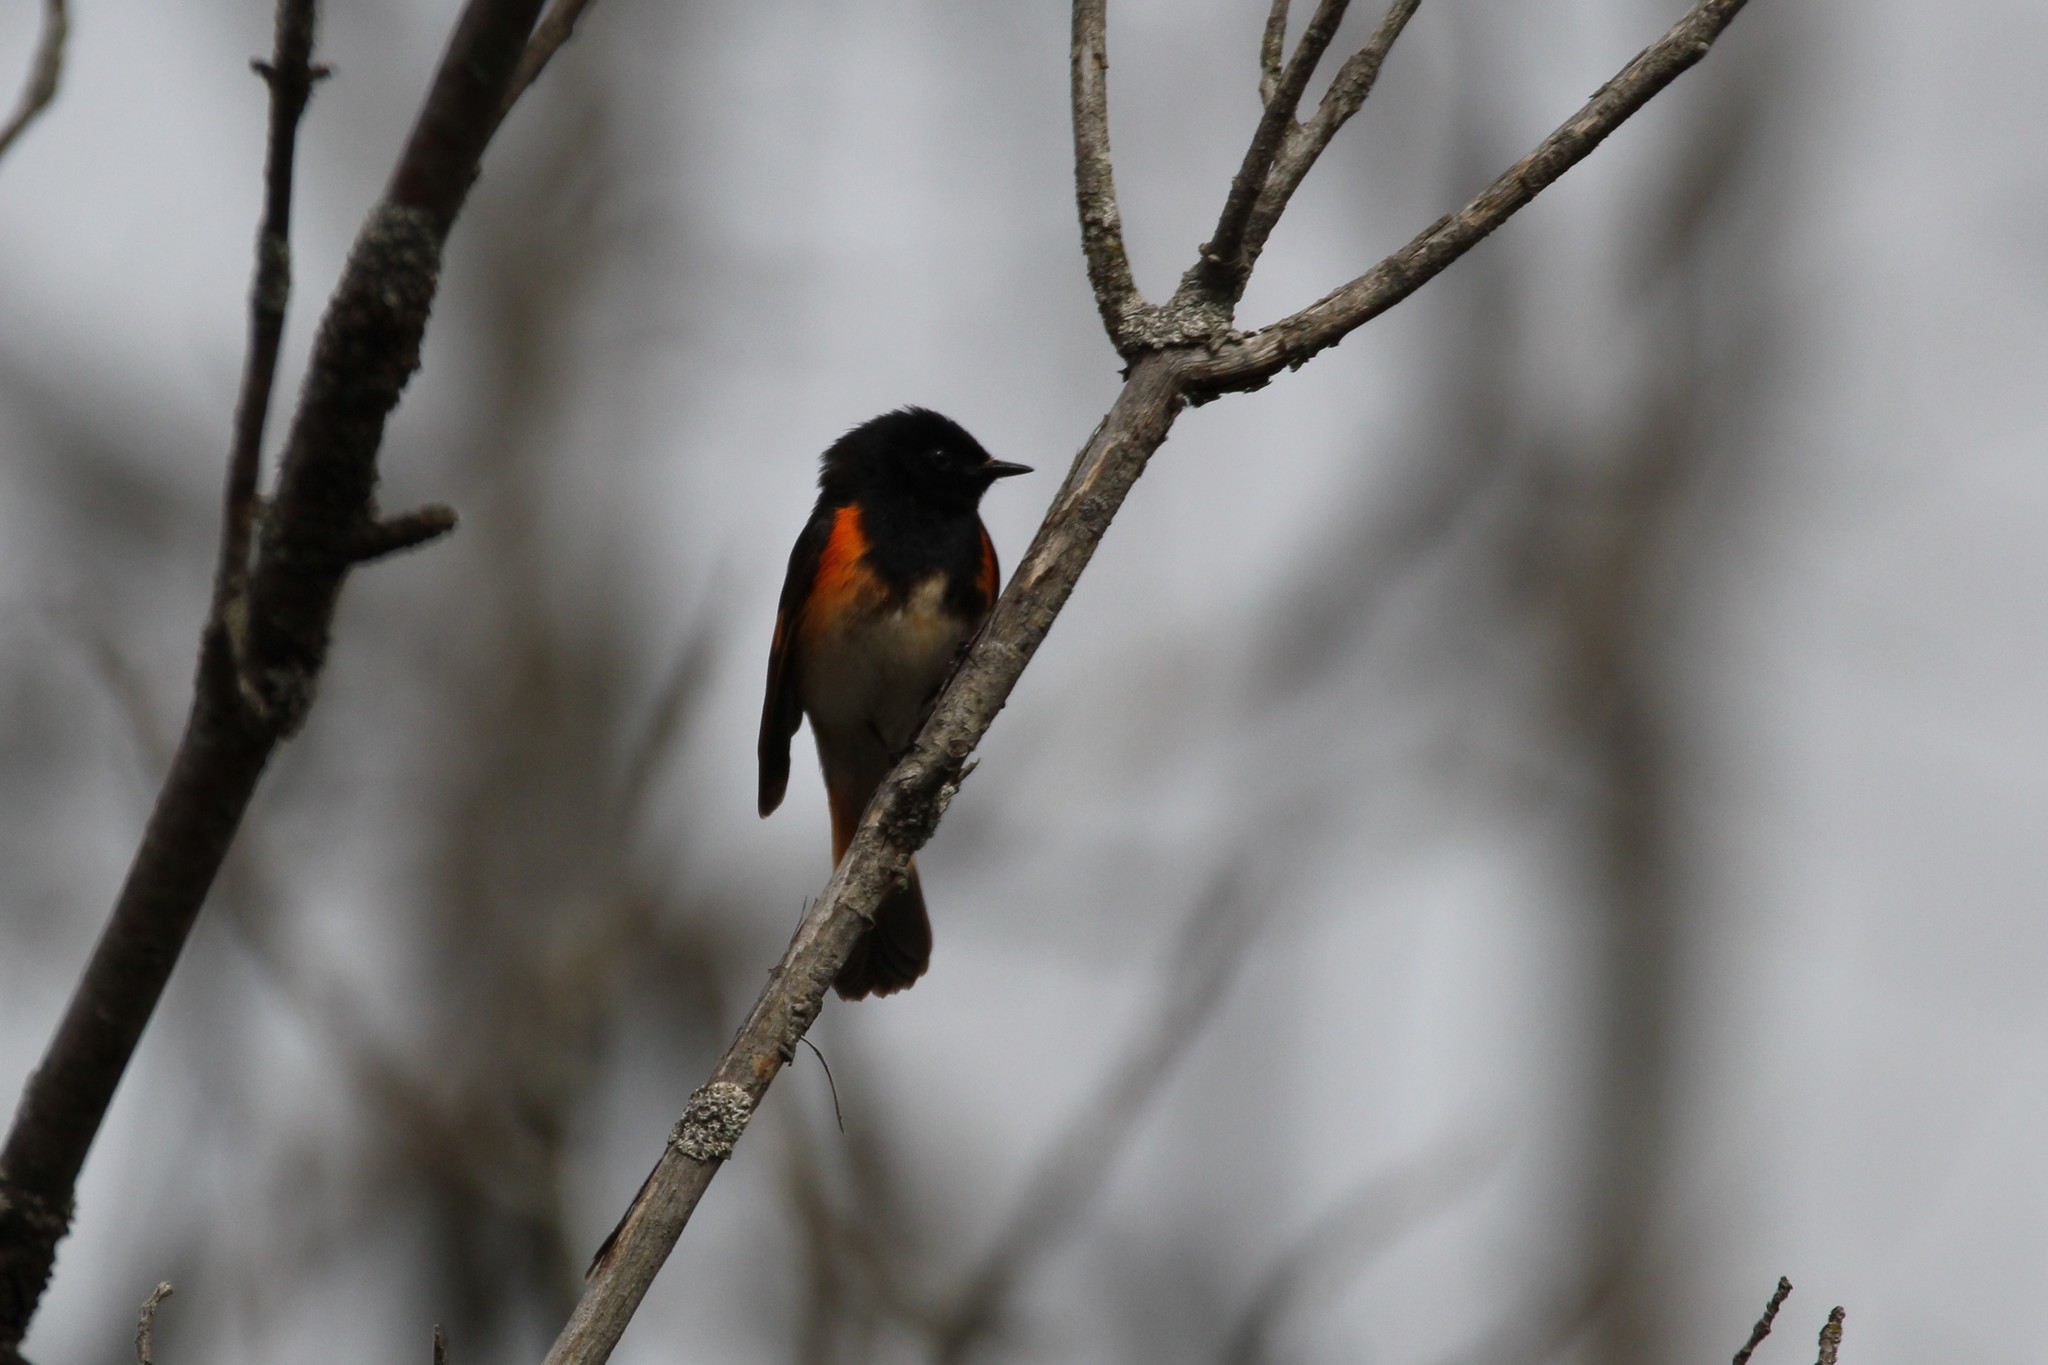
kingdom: Animalia
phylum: Chordata
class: Aves
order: Passeriformes
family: Parulidae
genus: Setophaga
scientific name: Setophaga ruticilla
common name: American redstart
